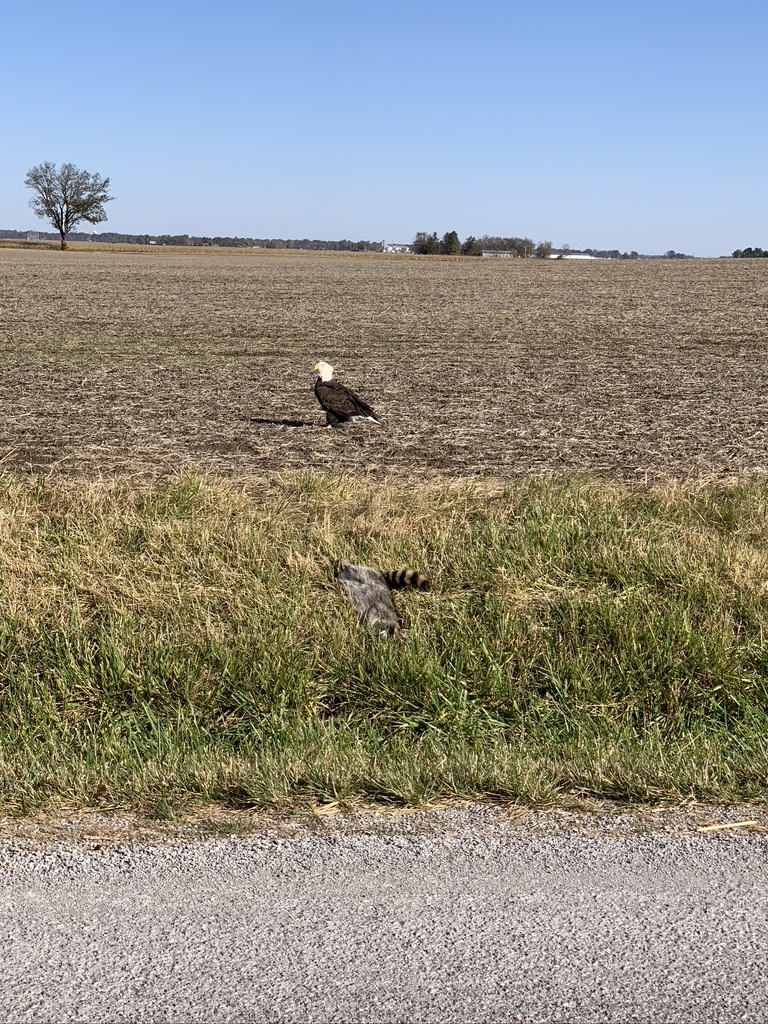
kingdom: Animalia
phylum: Chordata
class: Aves
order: Accipitriformes
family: Accipitridae
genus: Haliaeetus
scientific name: Haliaeetus leucocephalus
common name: Bald eagle
